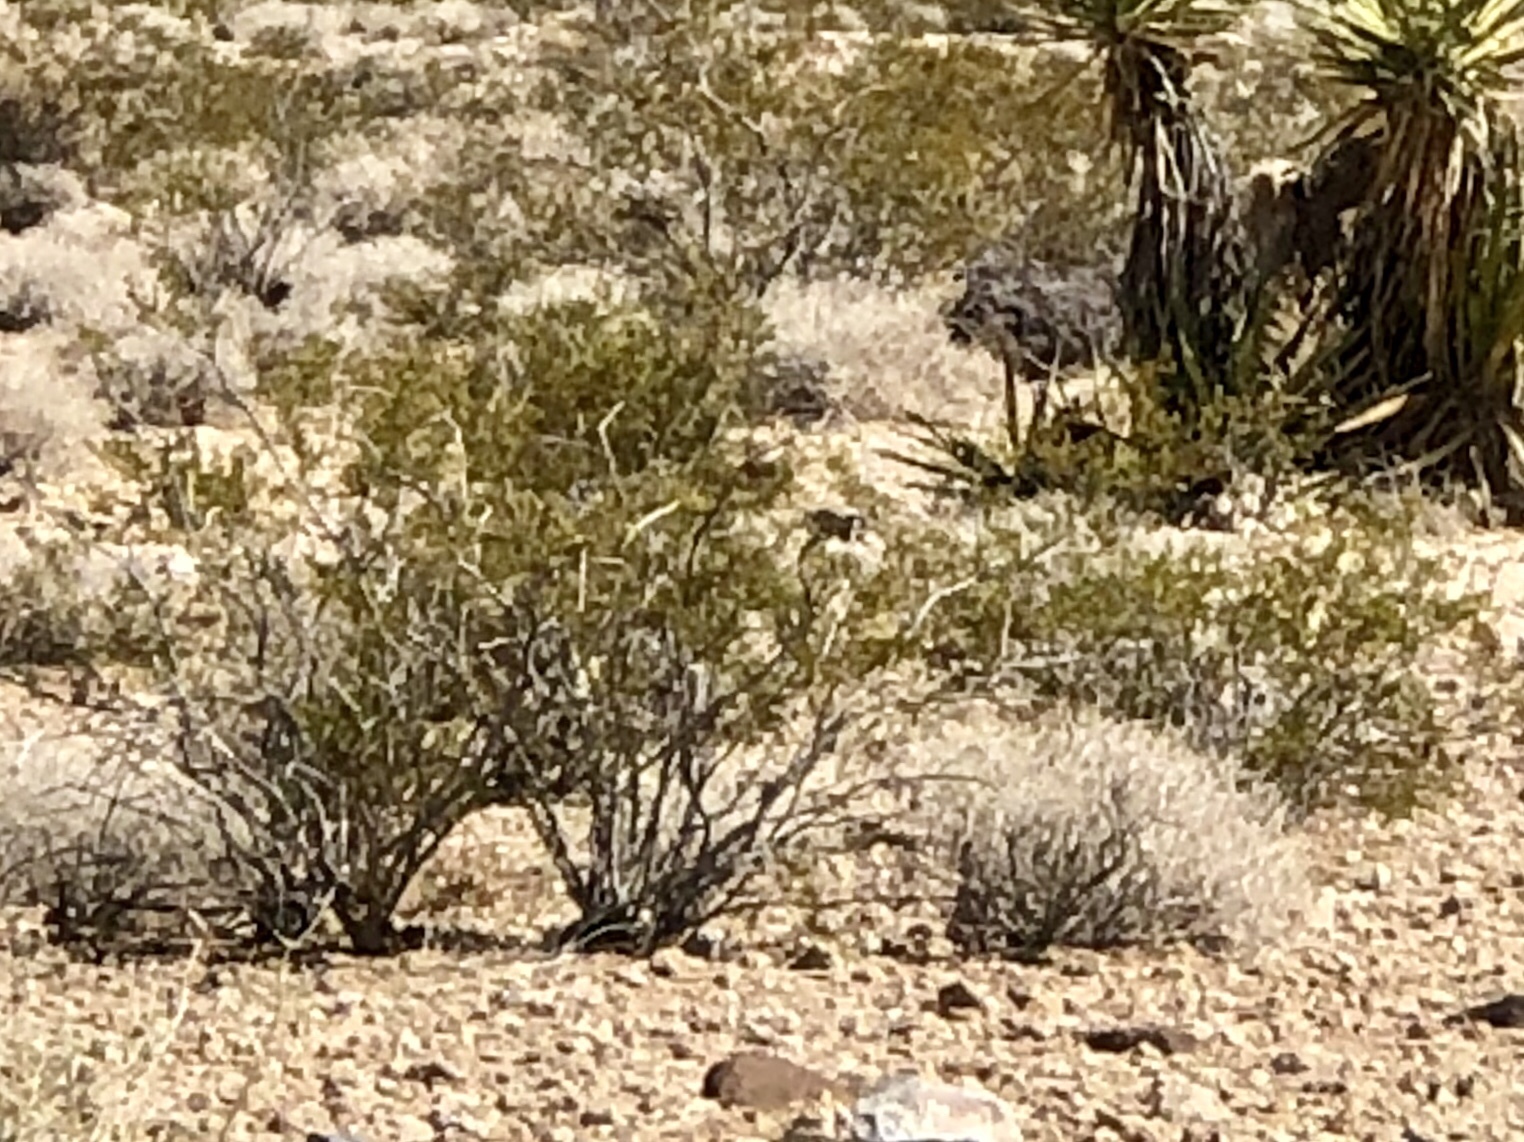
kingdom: Plantae
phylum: Tracheophyta
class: Magnoliopsida
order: Zygophyllales
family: Zygophyllaceae
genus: Larrea
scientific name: Larrea tridentata
